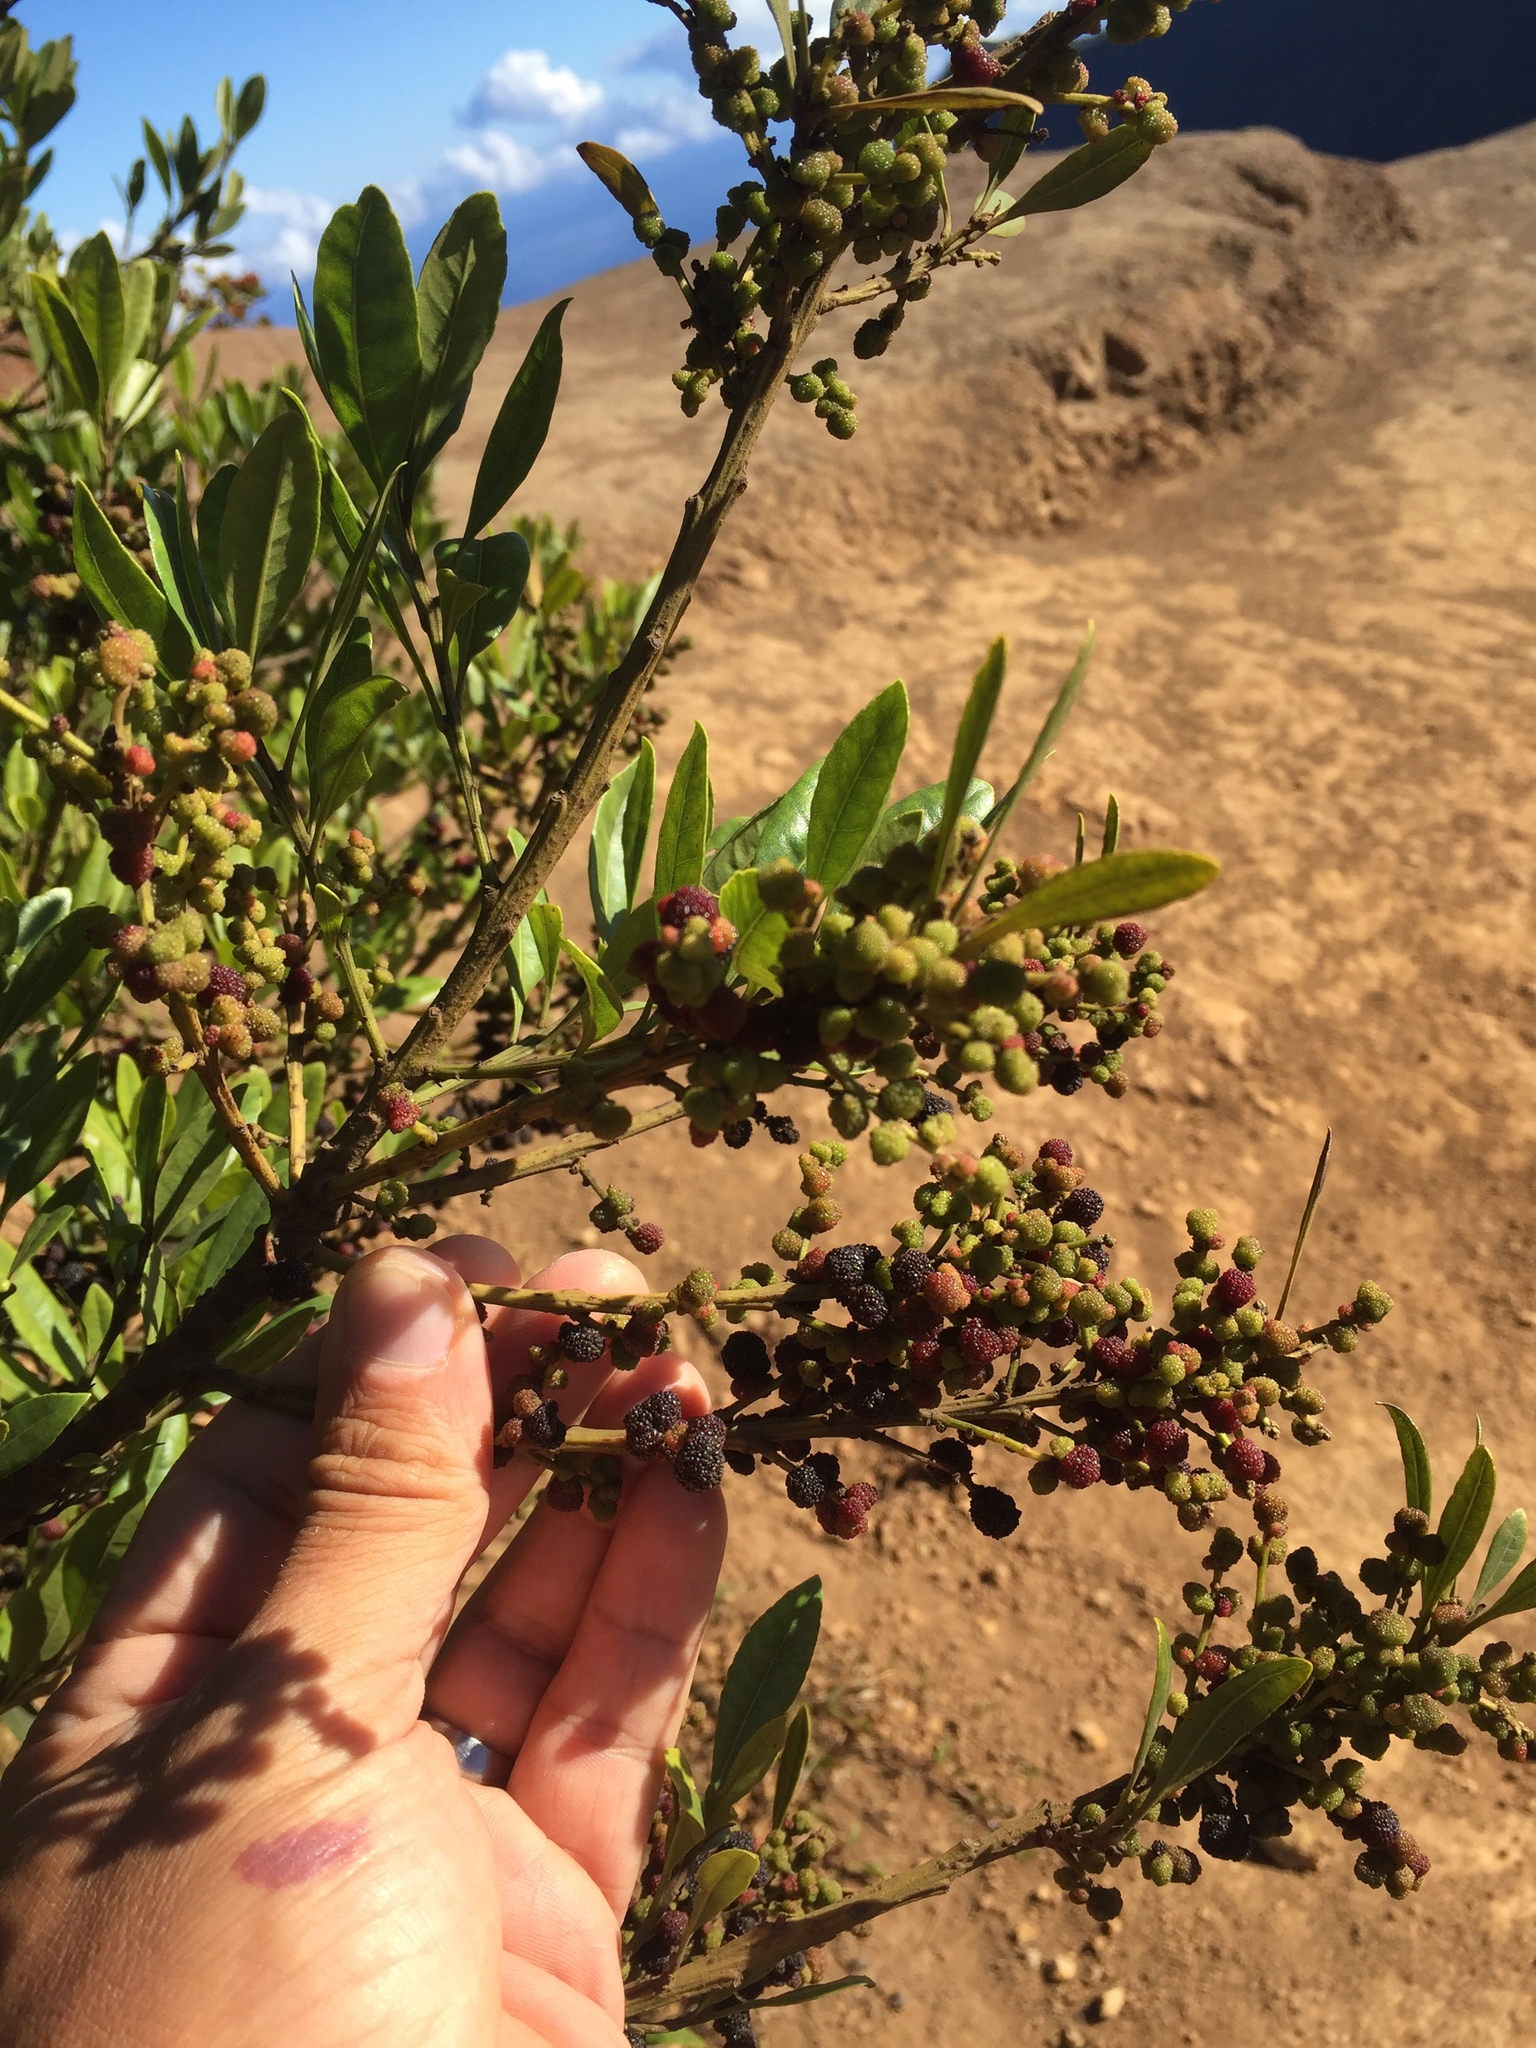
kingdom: Plantae
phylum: Tracheophyta
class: Magnoliopsida
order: Fagales
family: Myricaceae
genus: Morella
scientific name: Morella faya
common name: Firetree
